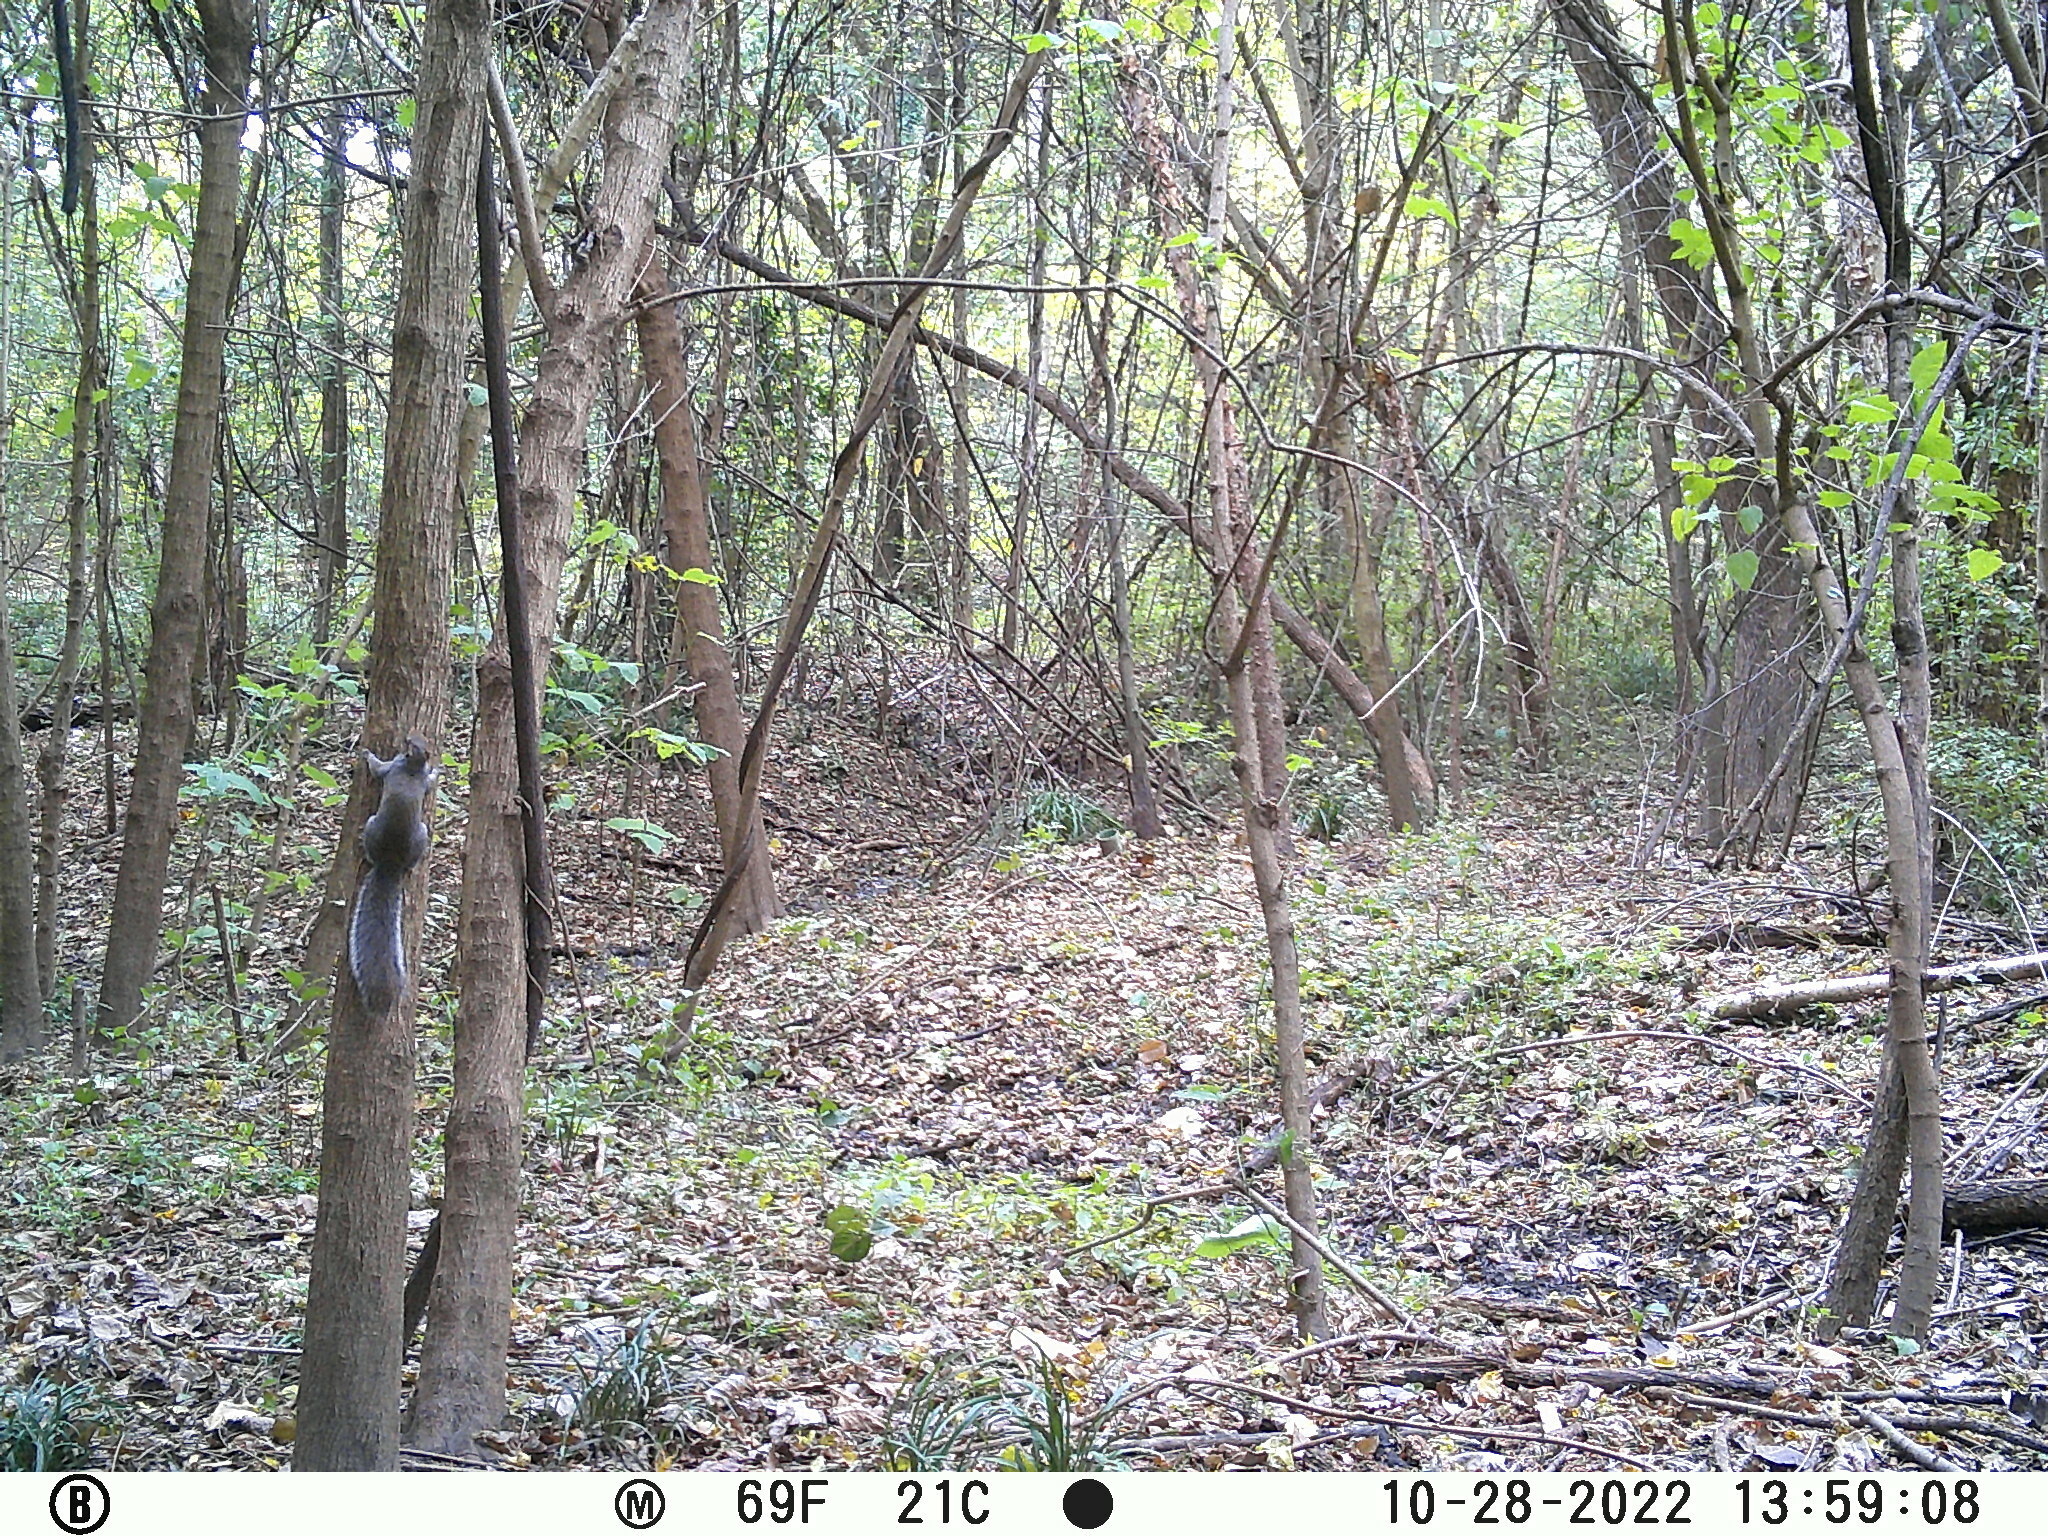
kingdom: Animalia
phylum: Chordata
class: Mammalia
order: Rodentia
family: Sciuridae
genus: Sciurus
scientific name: Sciurus carolinensis
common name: Eastern gray squirrel
